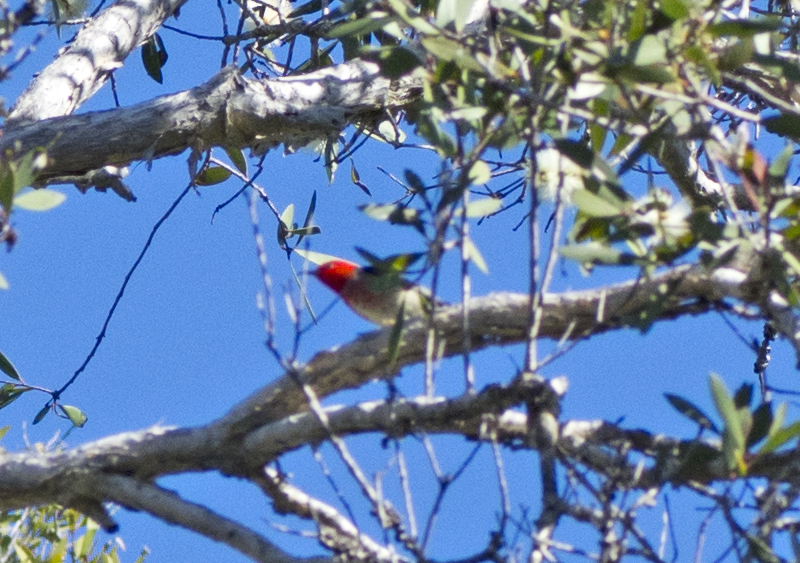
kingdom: Animalia
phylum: Chordata
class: Aves
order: Passeriformes
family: Meliphagidae
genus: Myzomela
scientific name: Myzomela sanguinolenta
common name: Scarlet myzomela
